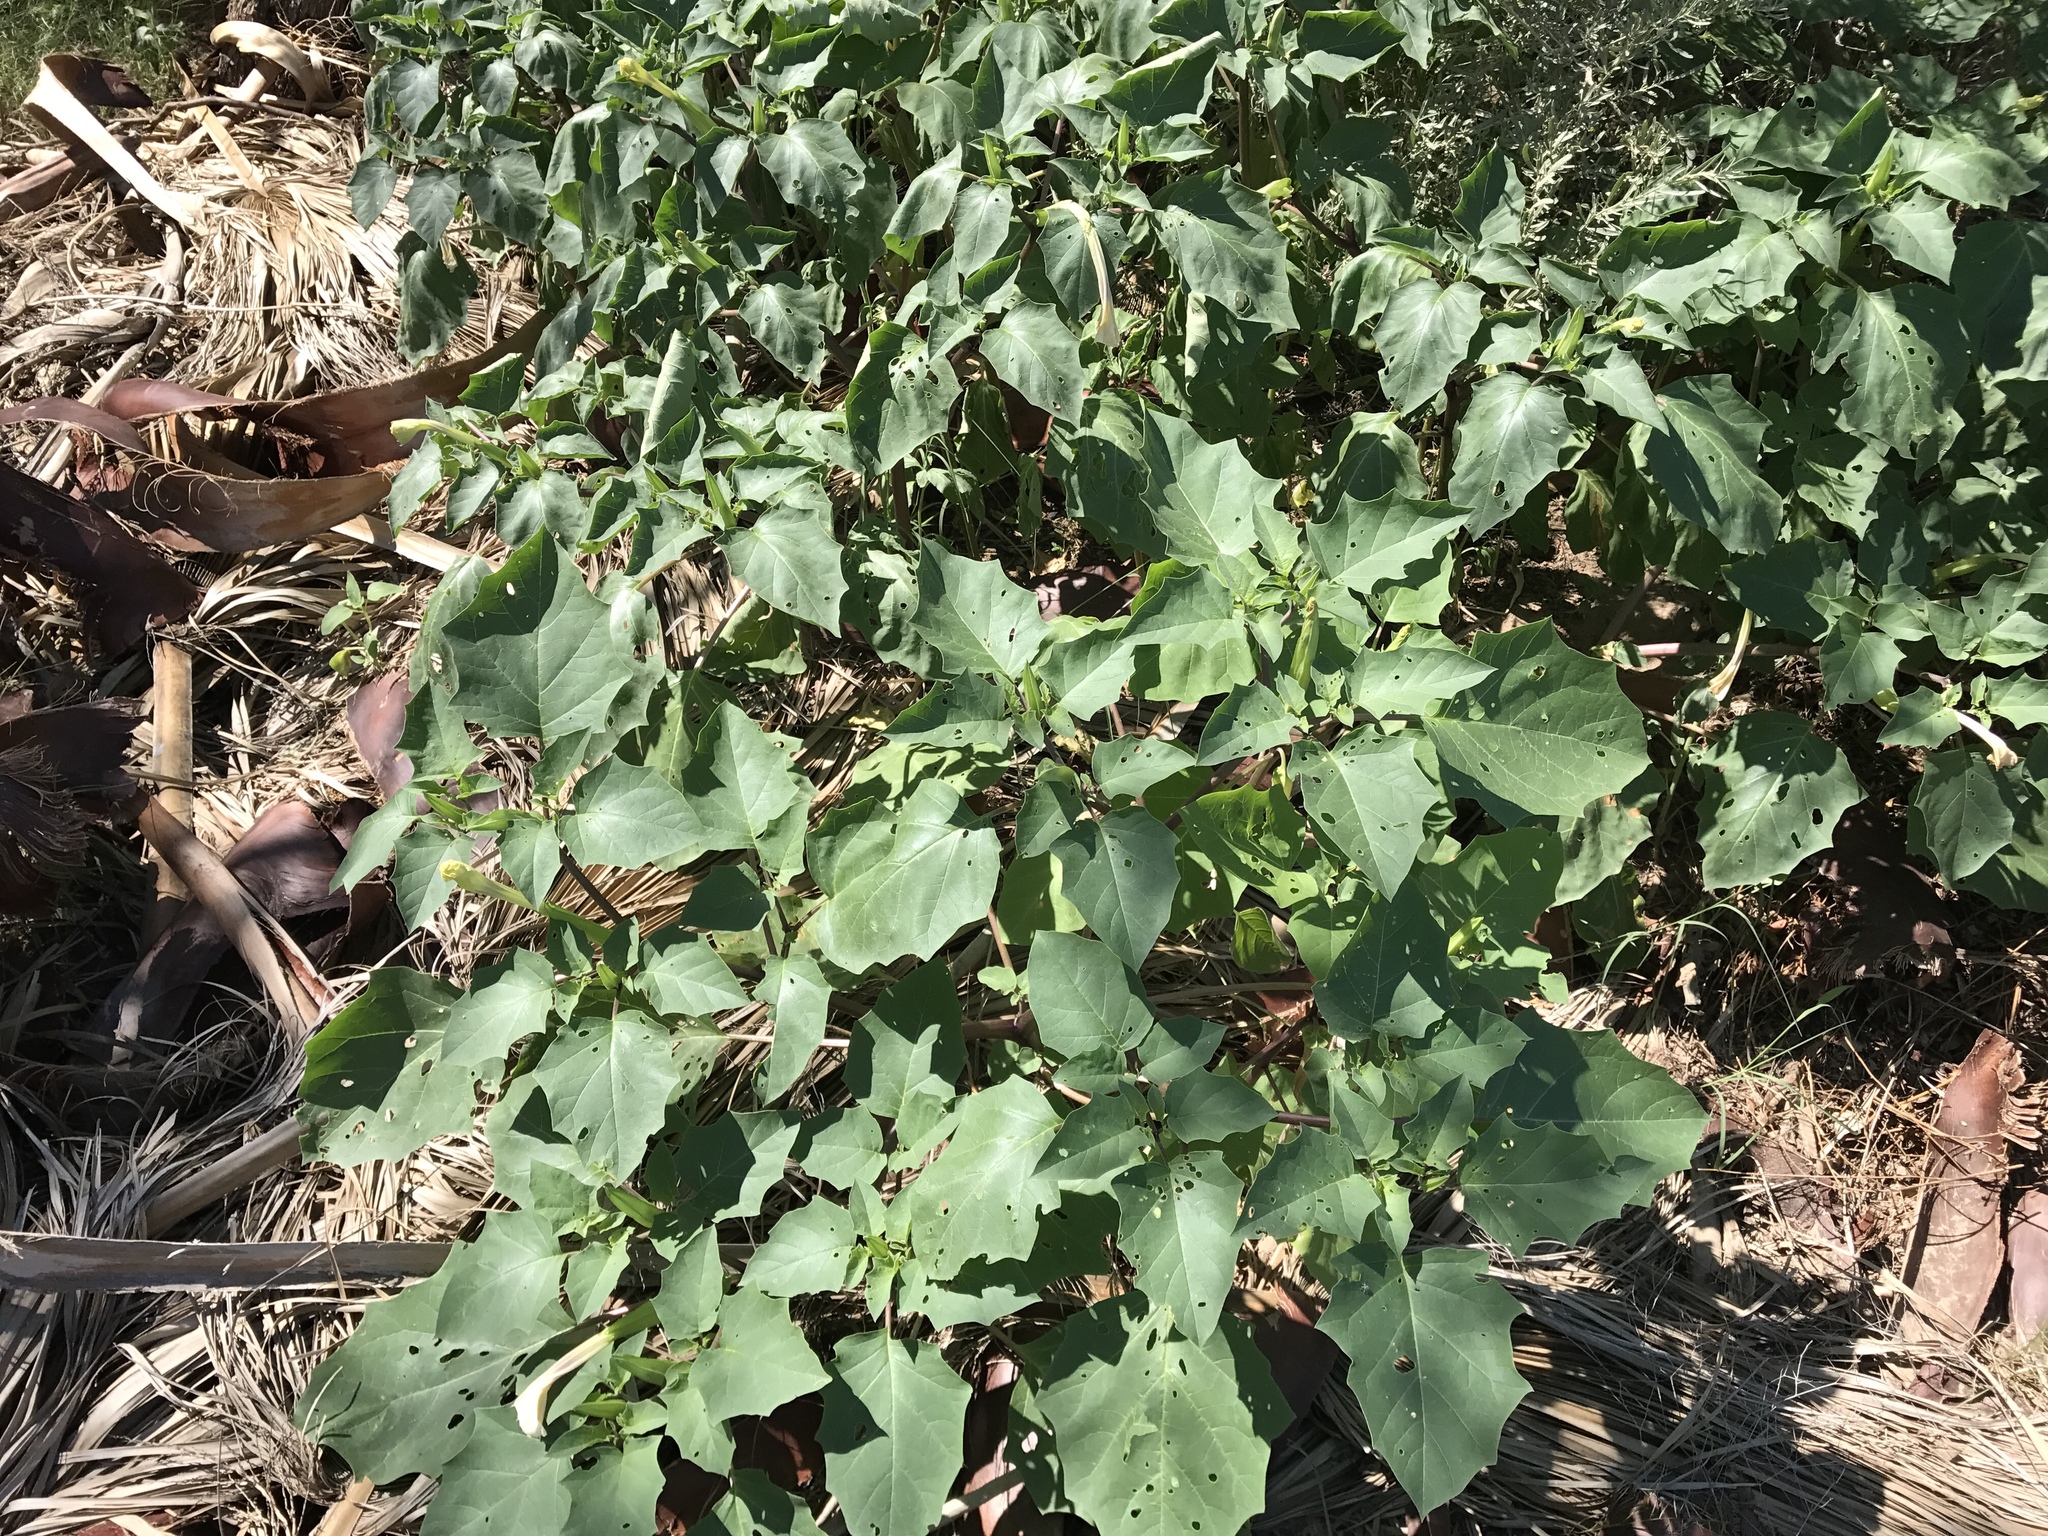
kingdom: Plantae
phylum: Tracheophyta
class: Magnoliopsida
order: Solanales
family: Solanaceae
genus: Datura
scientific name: Datura wrightii
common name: Sacred thorn-apple
